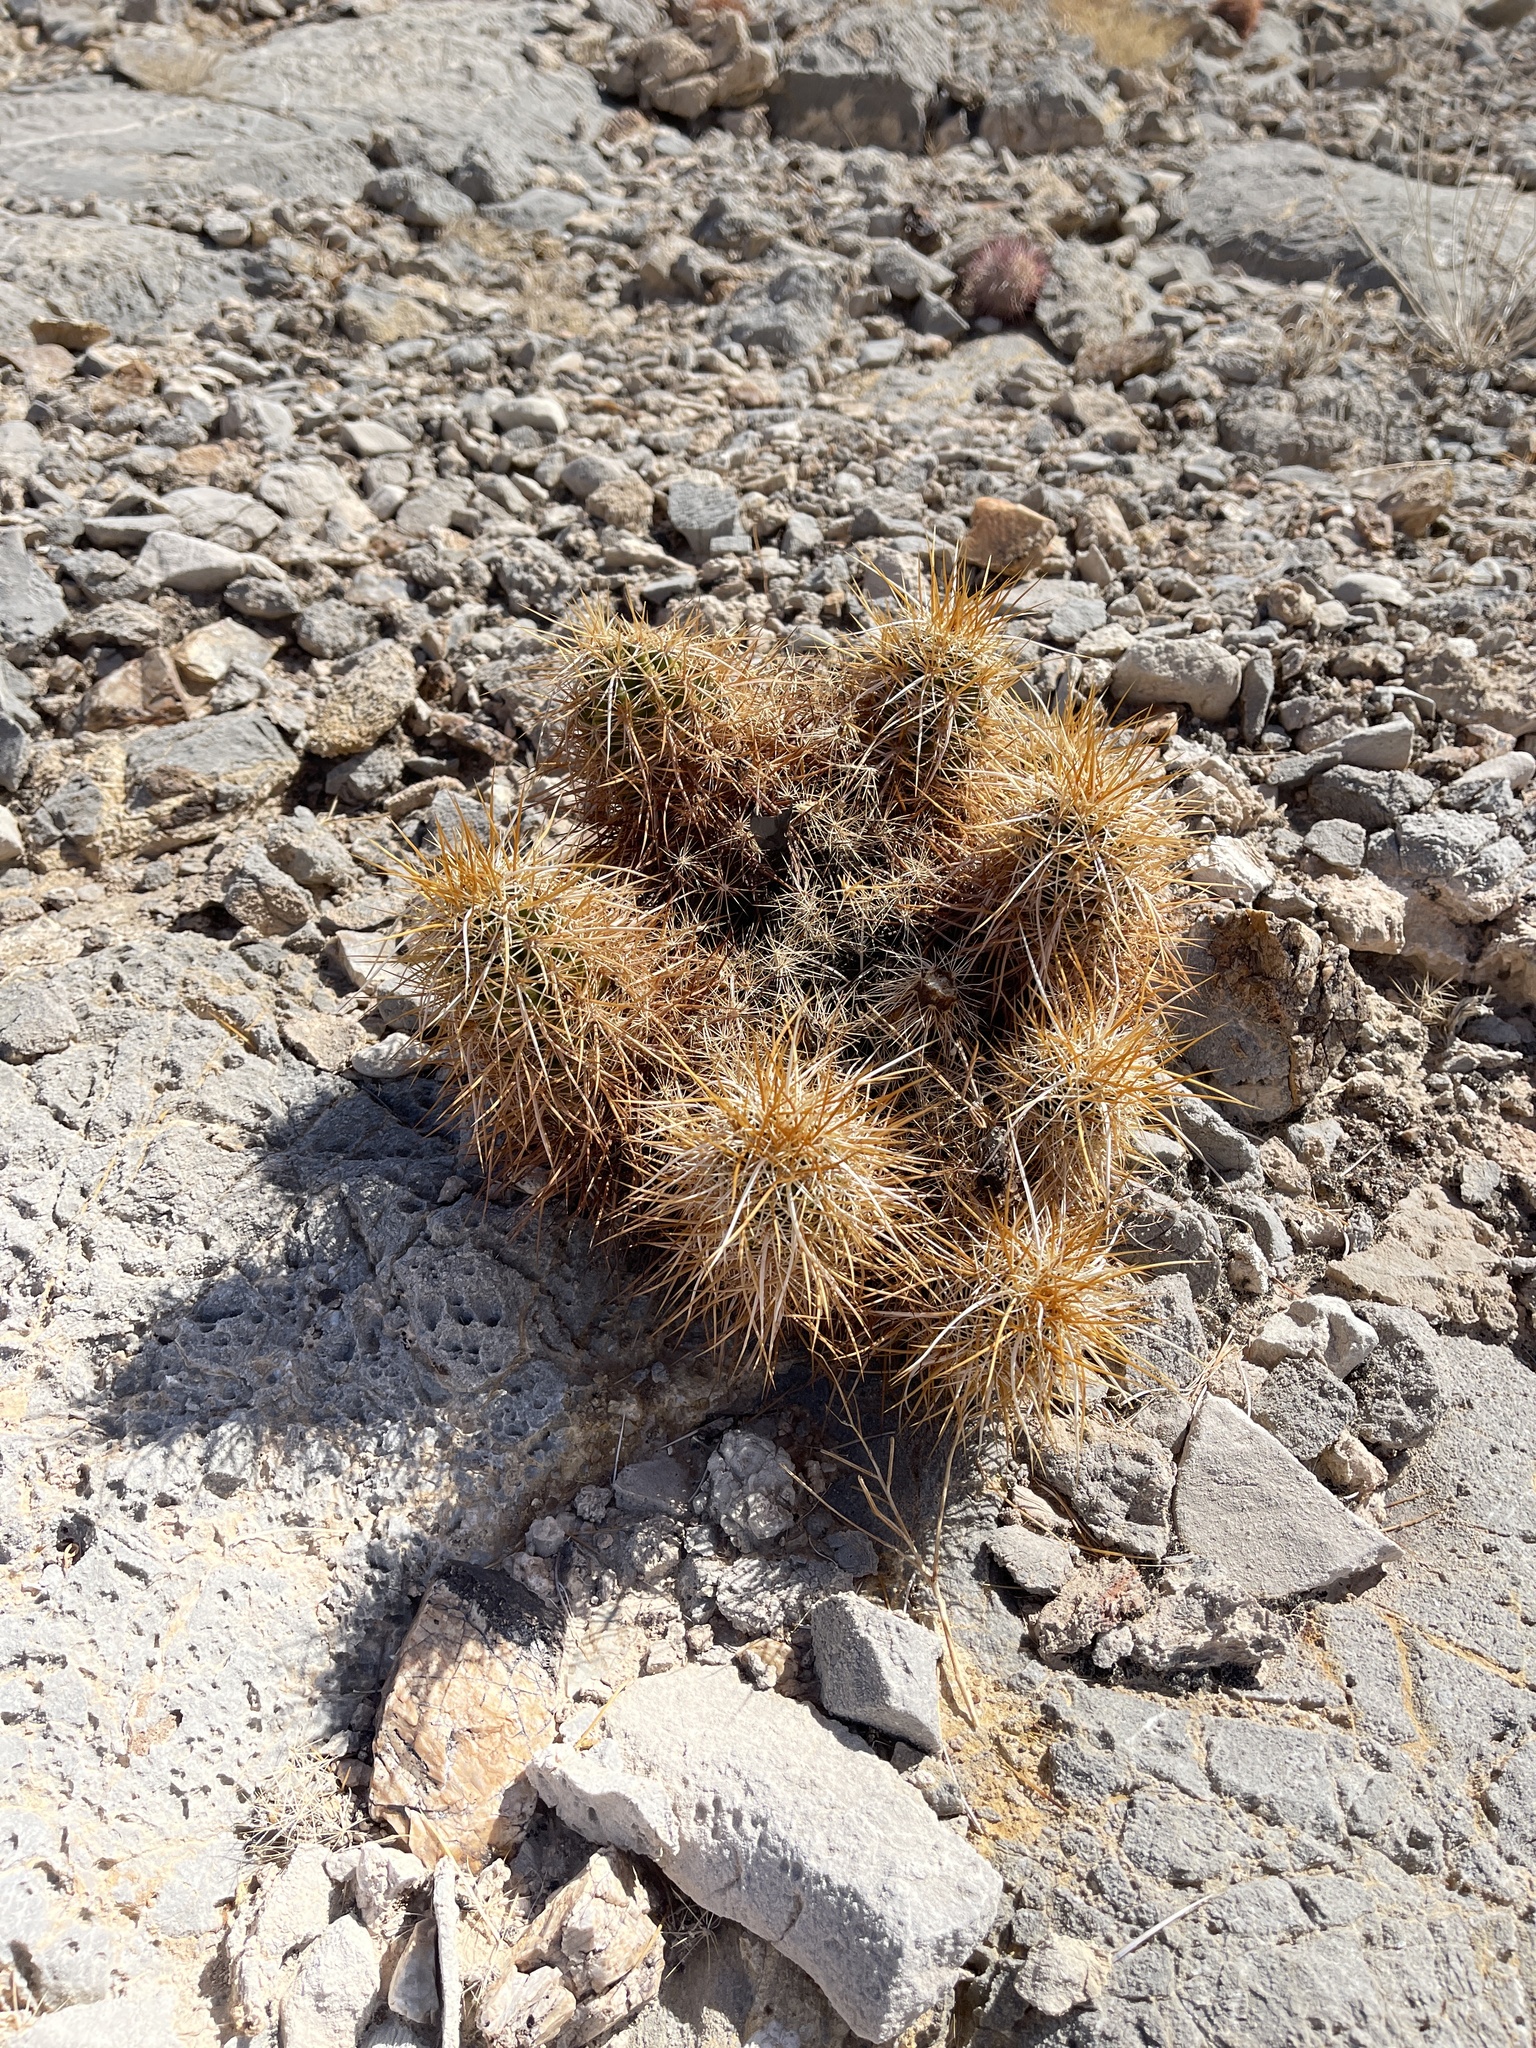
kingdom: Plantae
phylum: Tracheophyta
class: Magnoliopsida
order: Caryophyllales
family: Cactaceae
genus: Echinocereus
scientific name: Echinocereus engelmannii
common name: Engelmann's hedgehog cactus
